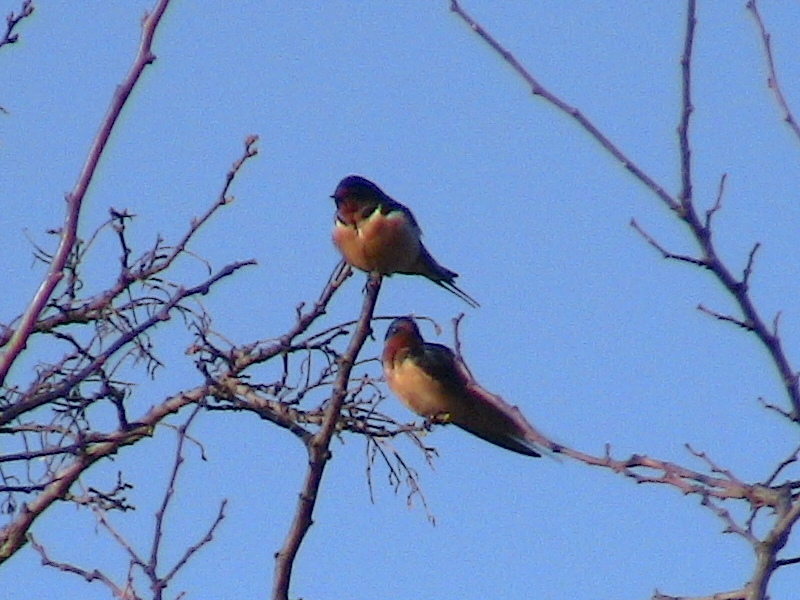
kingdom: Animalia
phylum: Chordata
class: Aves
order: Passeriformes
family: Hirundinidae
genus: Hirundo
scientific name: Hirundo rustica
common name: Barn swallow
